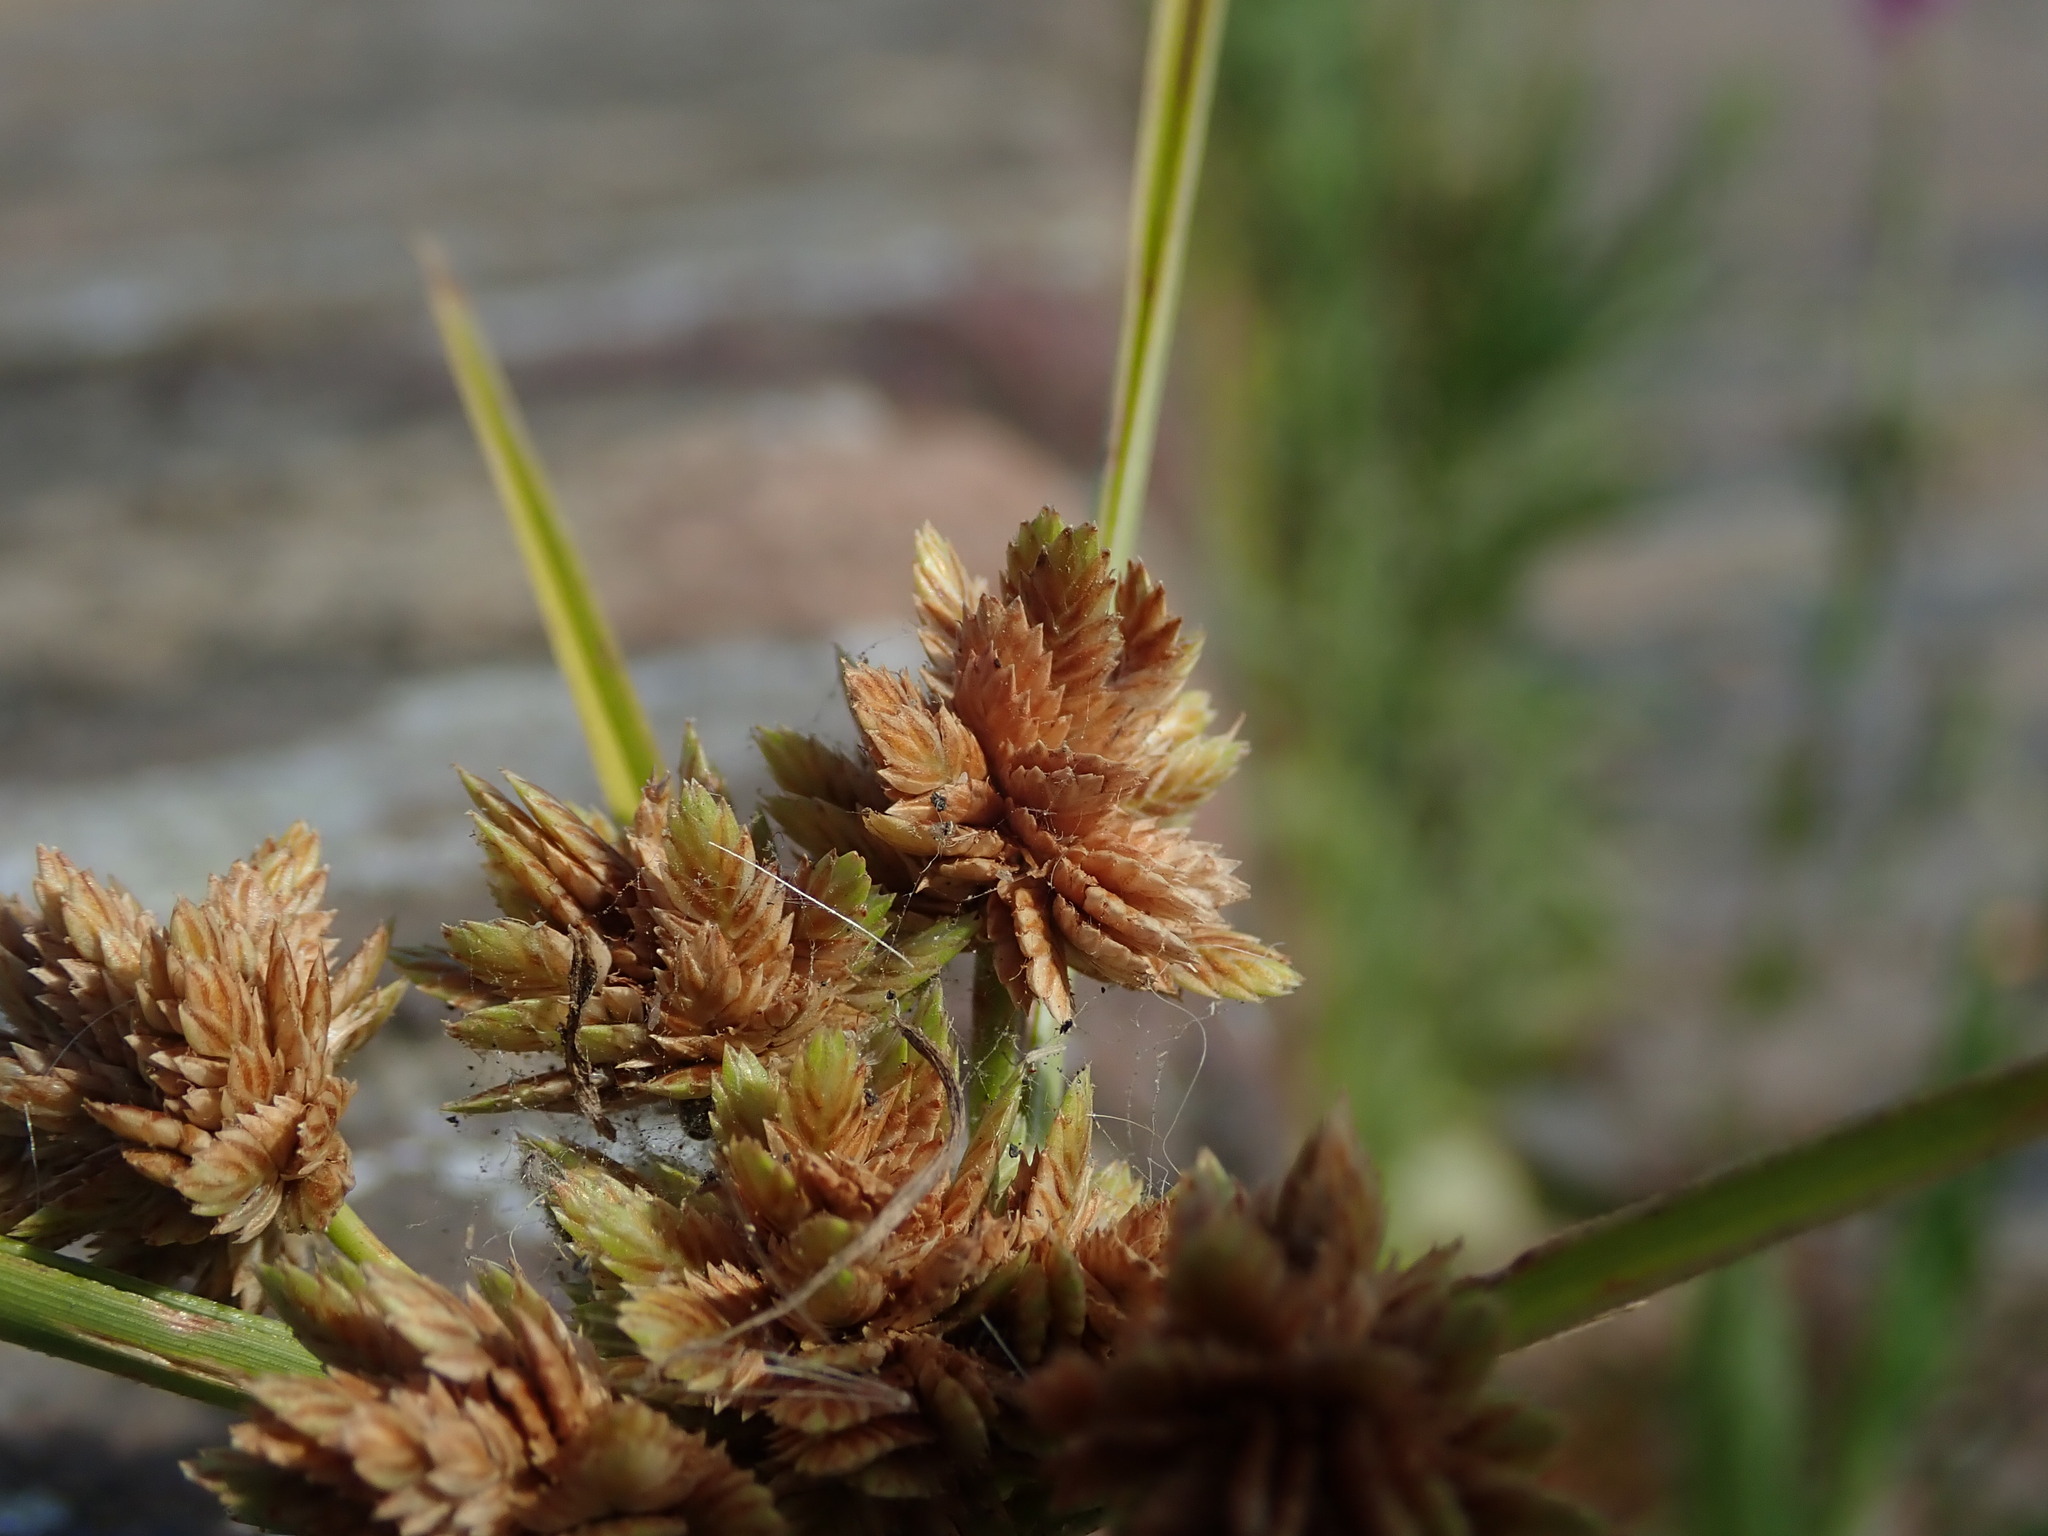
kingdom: Plantae
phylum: Tracheophyta
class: Liliopsida
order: Poales
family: Cyperaceae
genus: Cyperus
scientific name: Cyperus eragrostis
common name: Tall flatsedge
